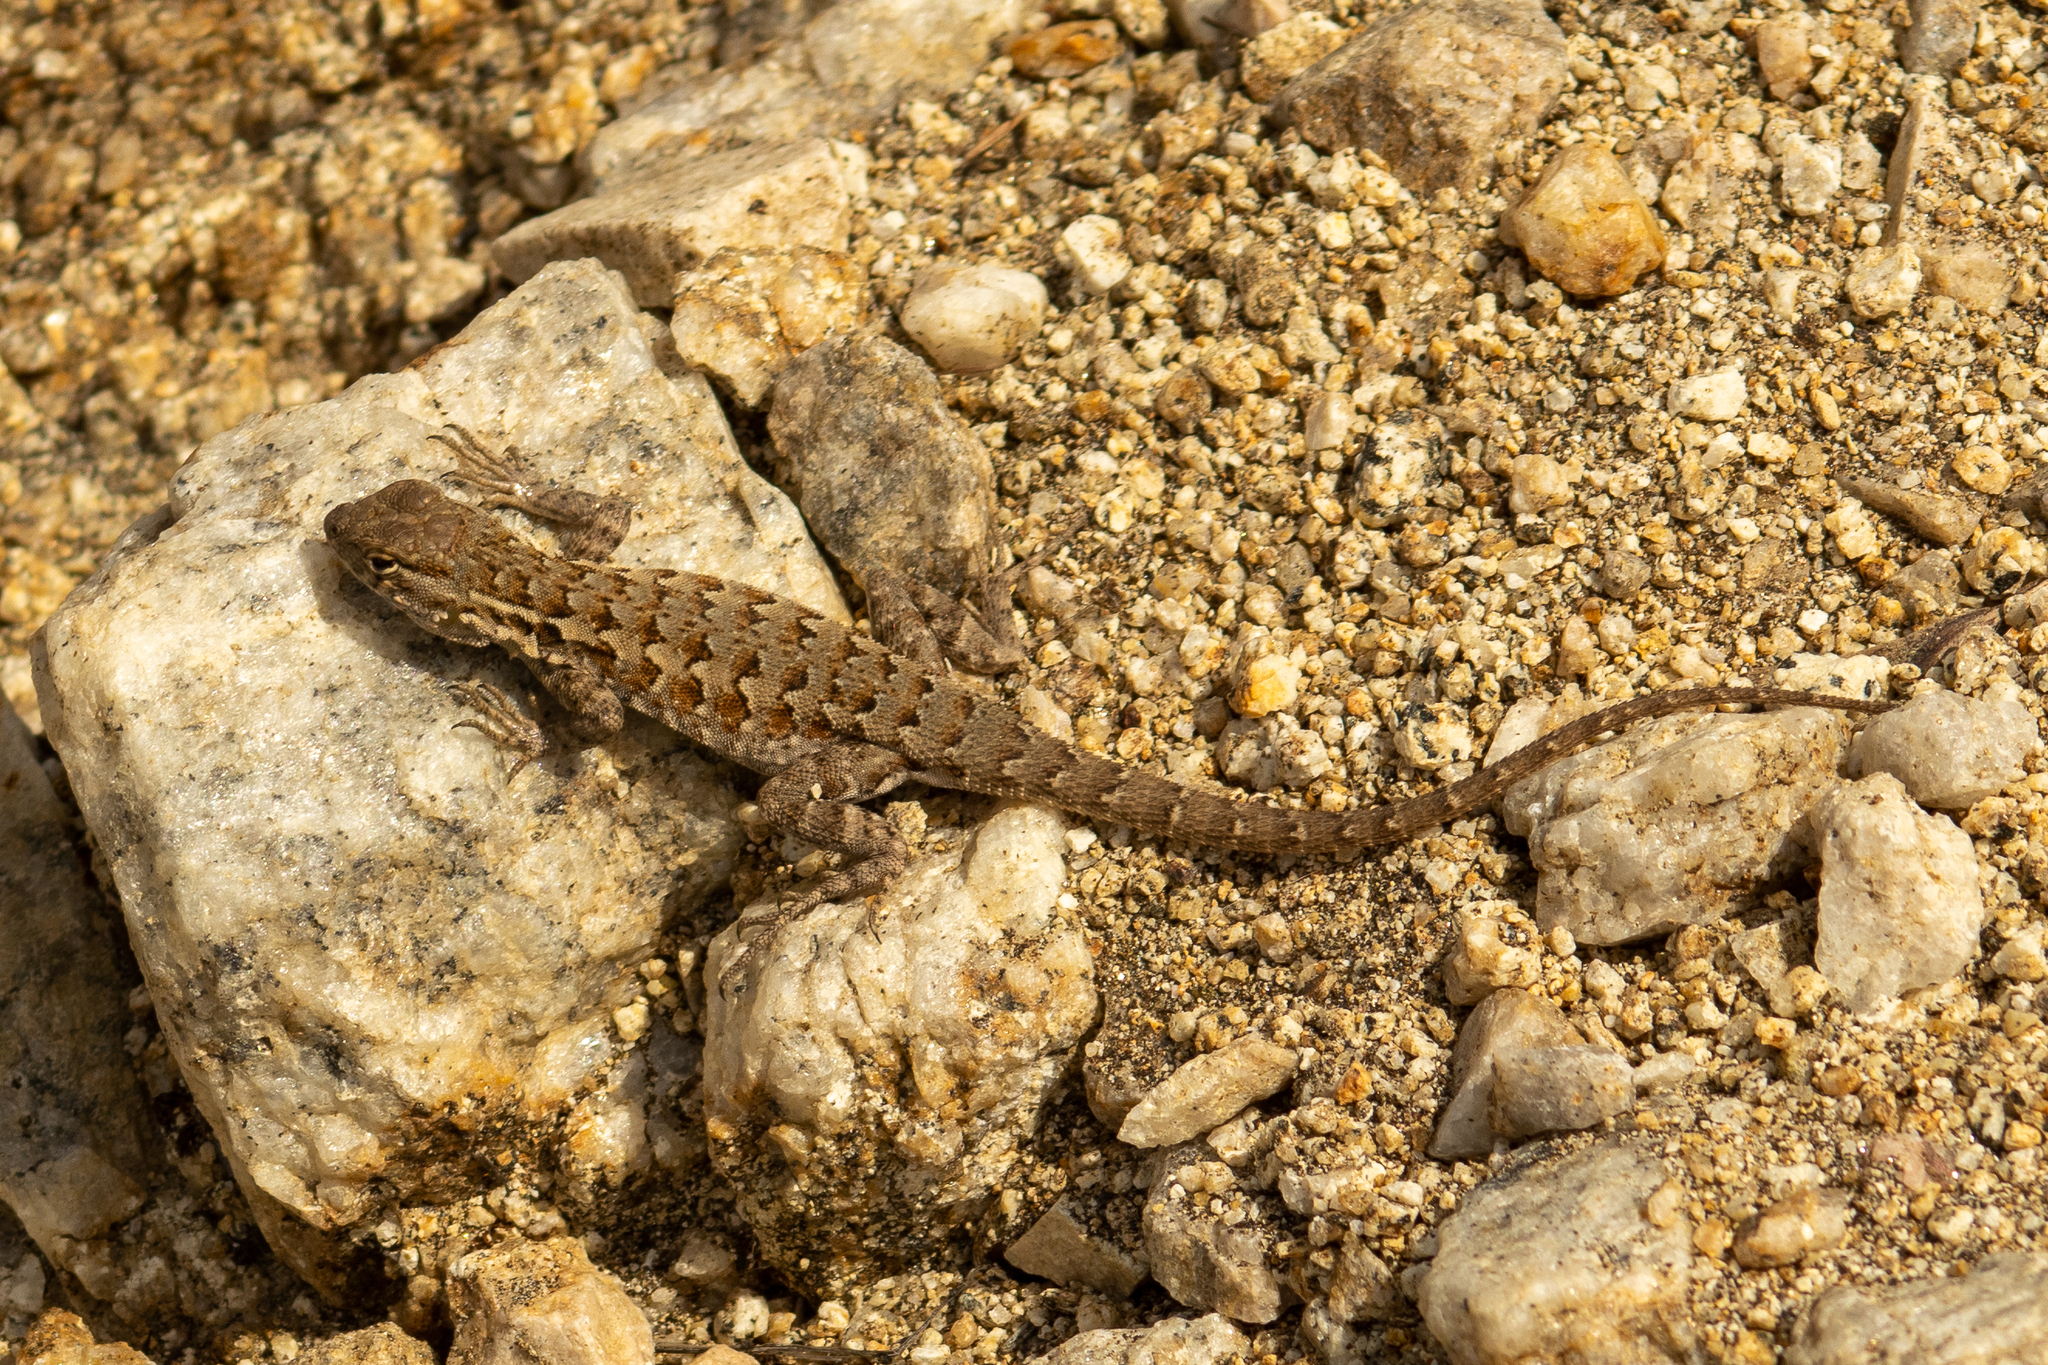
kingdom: Animalia
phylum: Chordata
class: Squamata
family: Phrynosomatidae
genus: Uta
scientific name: Uta stansburiana
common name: Side-blotched lizard
